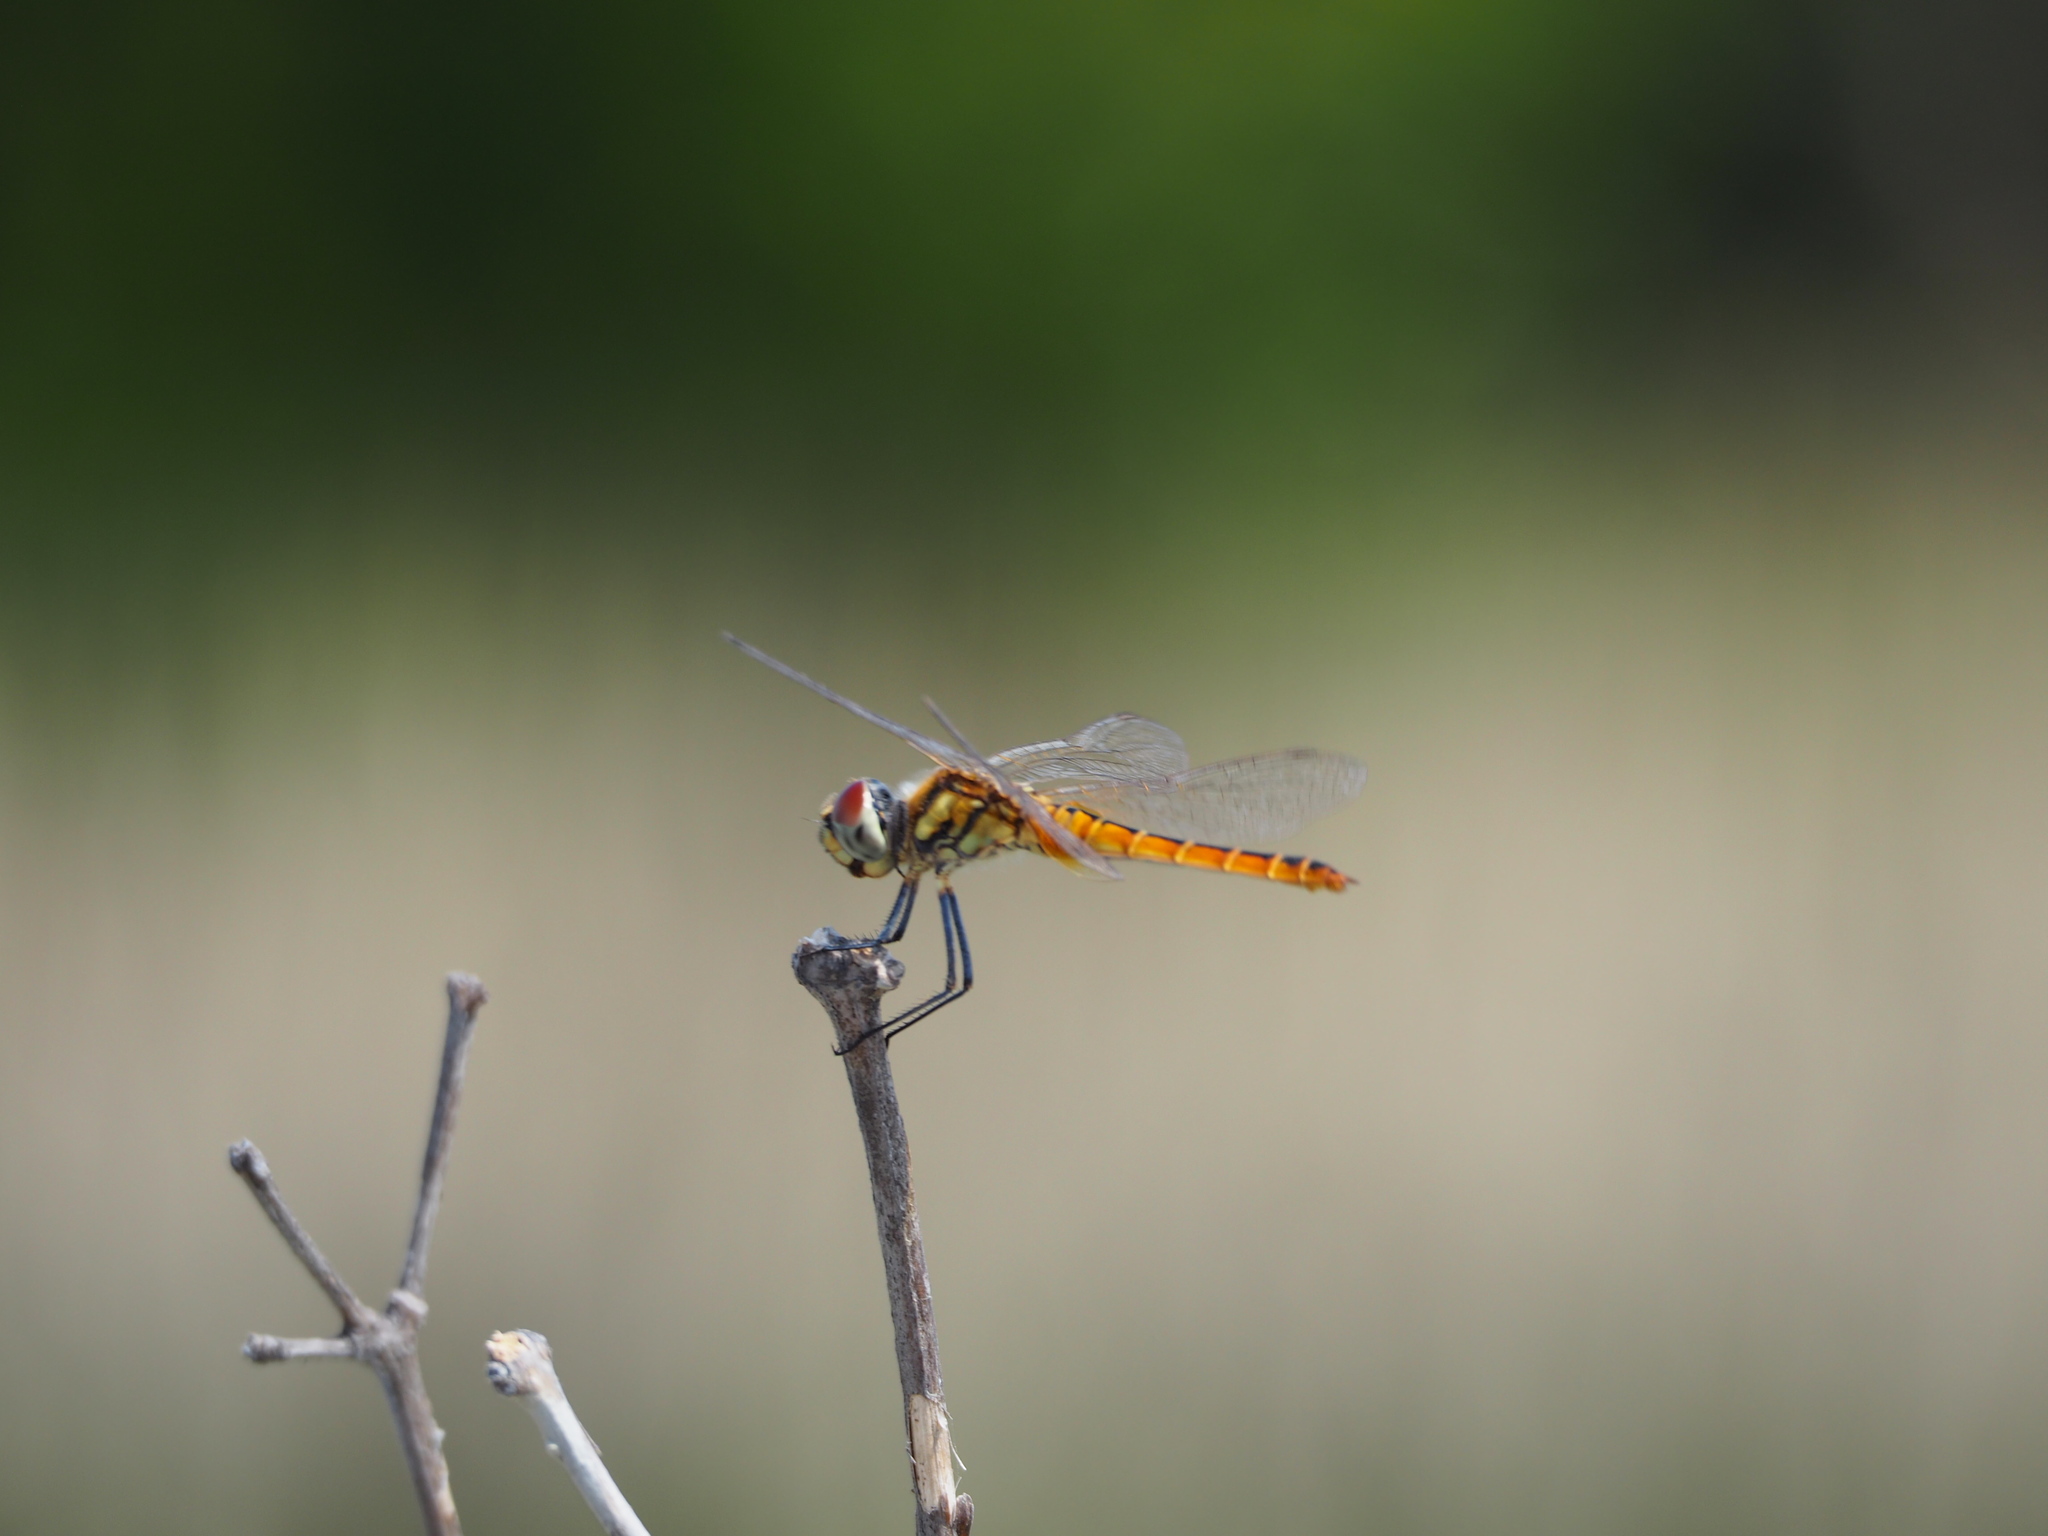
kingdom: Animalia
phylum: Arthropoda
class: Insecta
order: Odonata
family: Libellulidae
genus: Macrodiplax
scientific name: Macrodiplax cora
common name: Coastal glider
